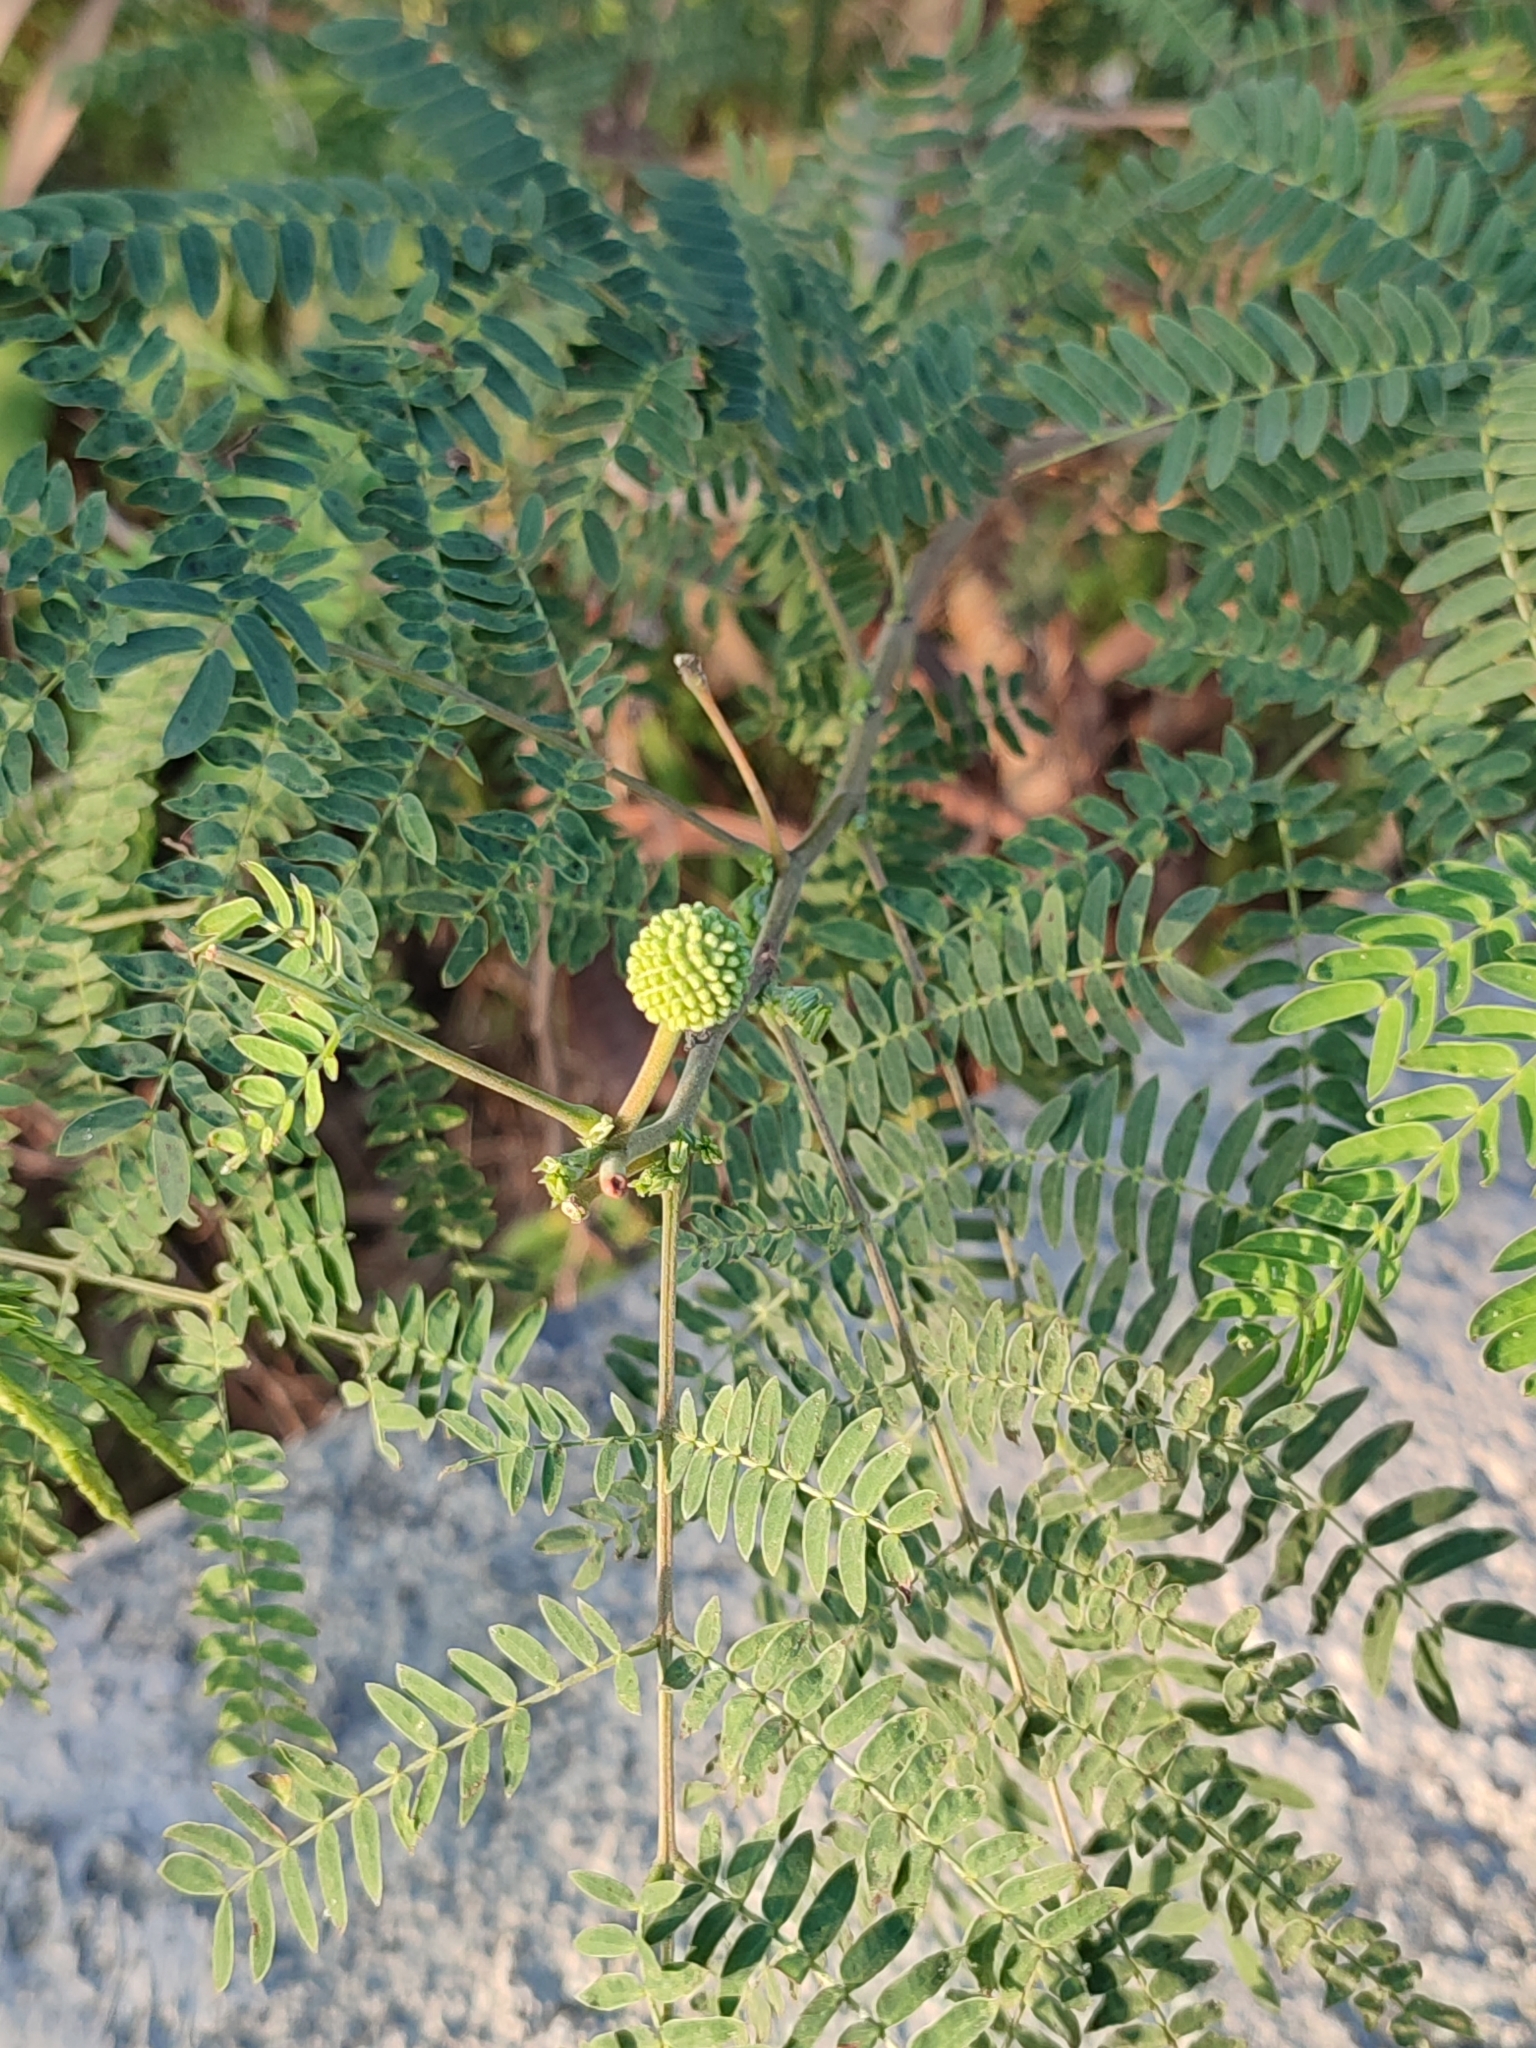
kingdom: Plantae
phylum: Tracheophyta
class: Magnoliopsida
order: Fabales
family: Fabaceae
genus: Leucaena
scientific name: Leucaena leucocephala
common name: White leadtree
